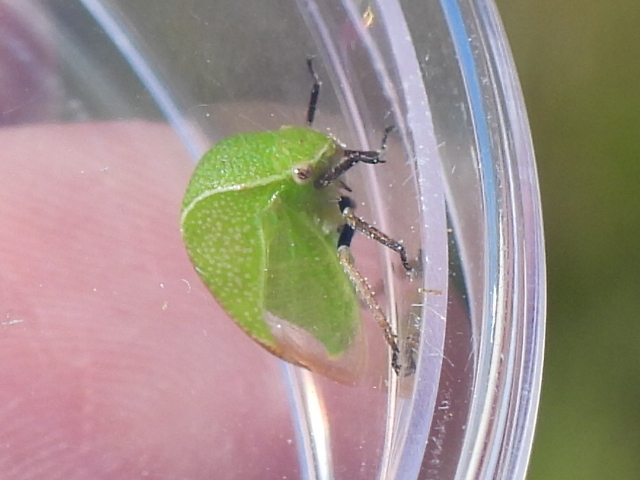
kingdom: Animalia
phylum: Arthropoda
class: Insecta
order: Hemiptera
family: Membracidae
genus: Tortistilus
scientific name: Tortistilus inermis
